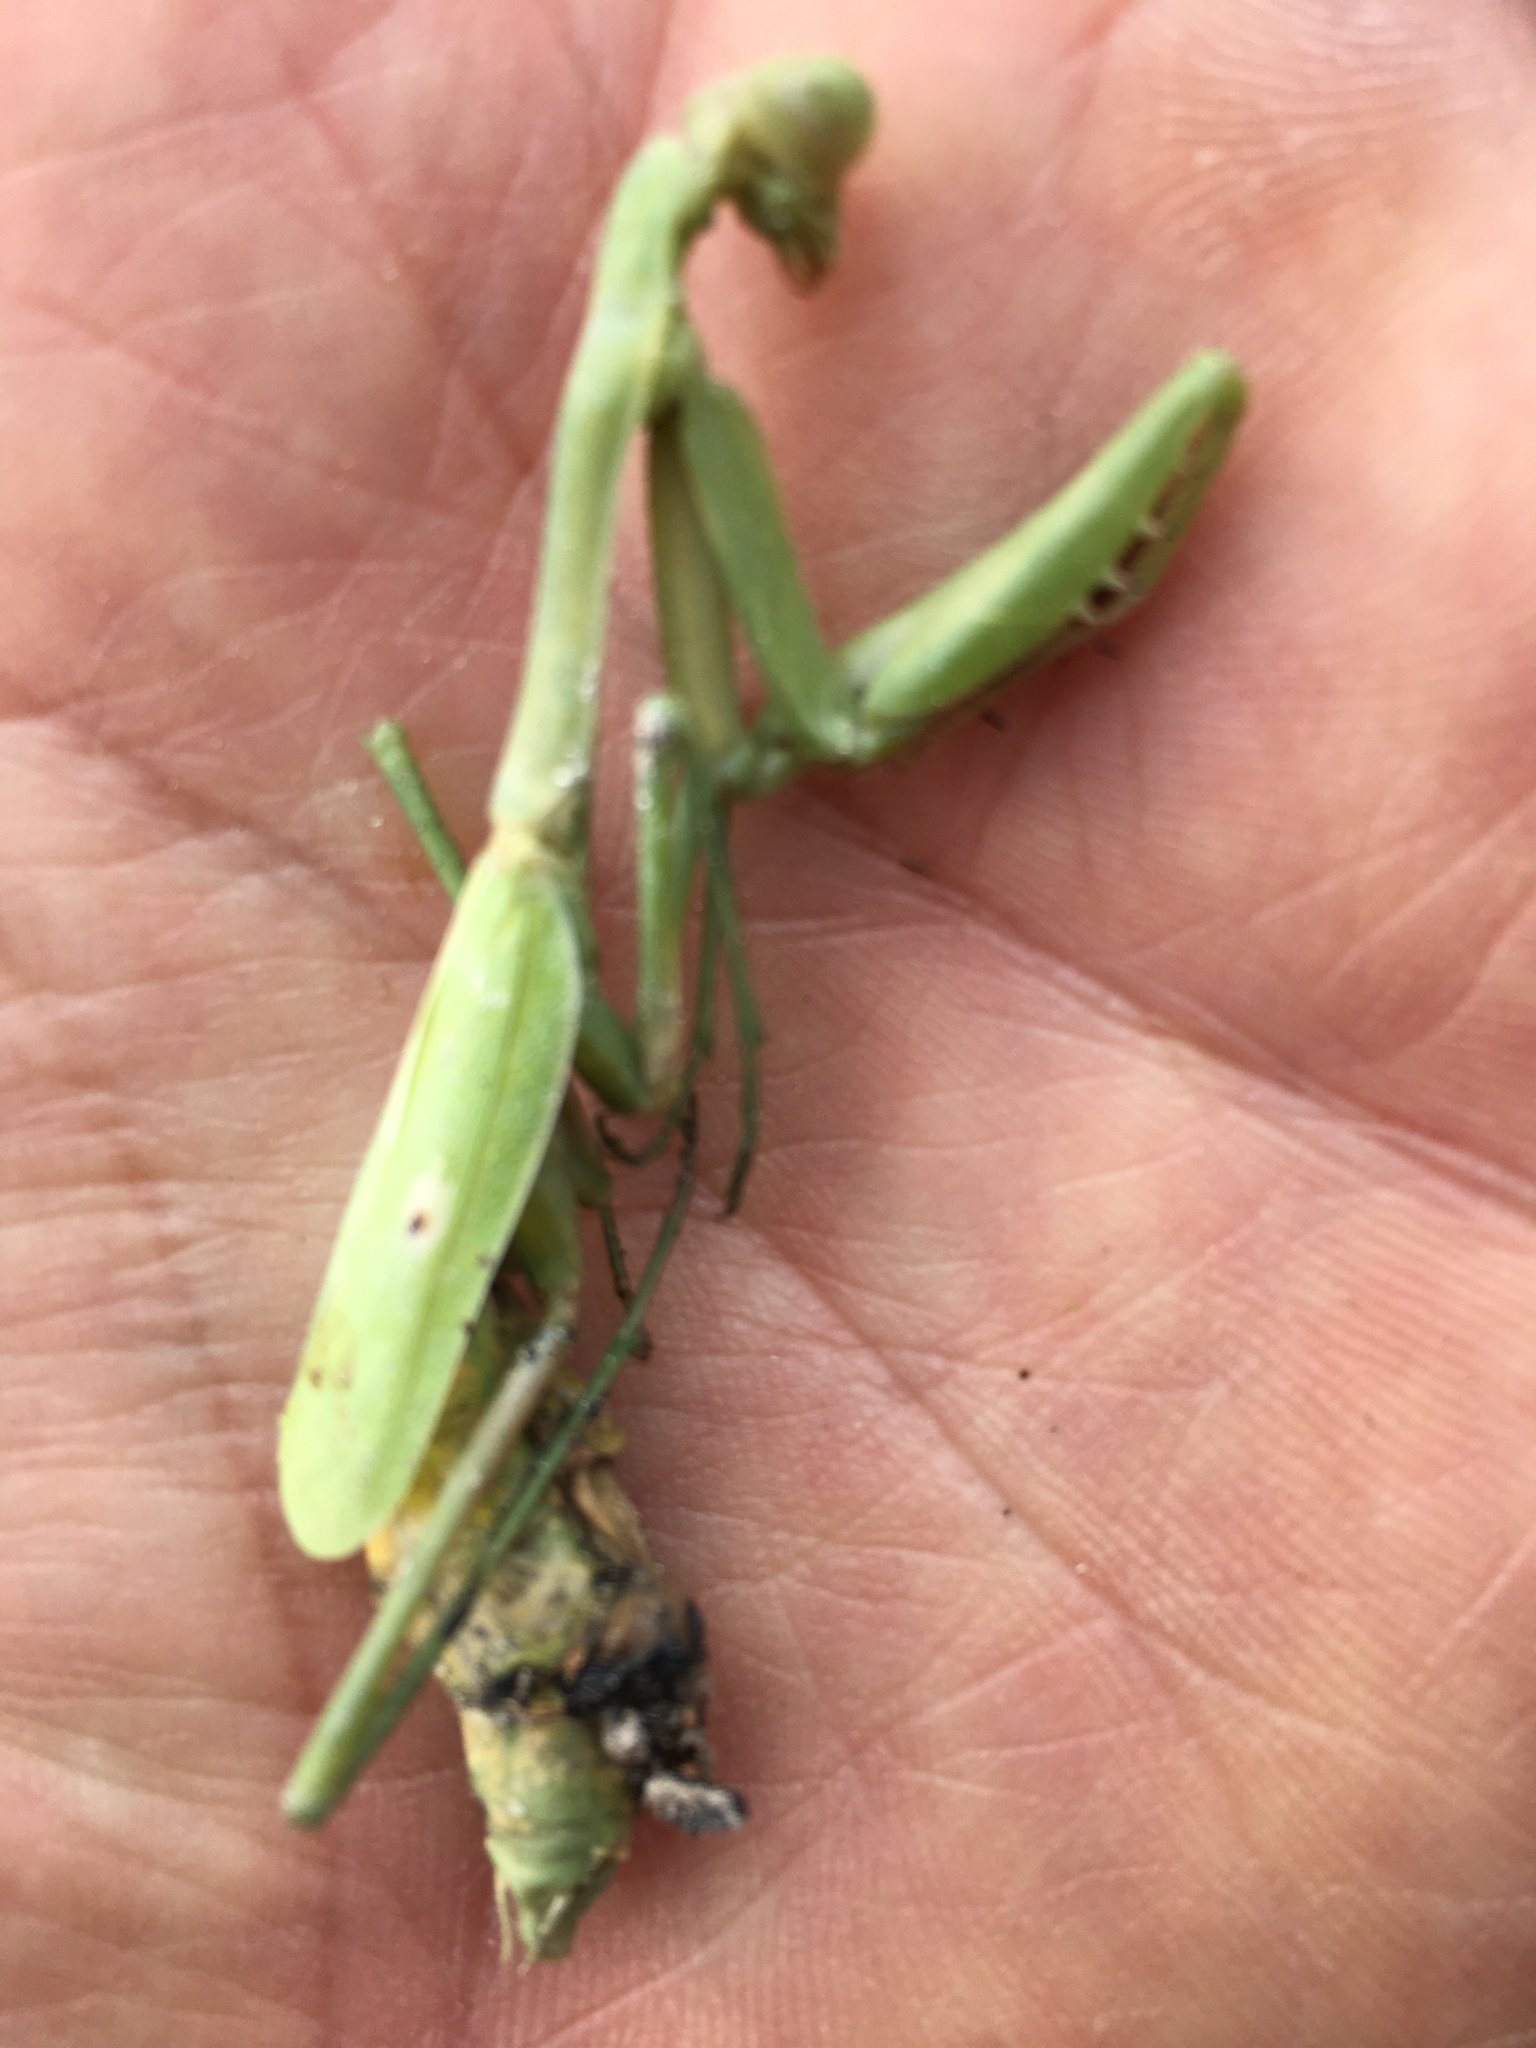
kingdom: Animalia
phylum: Arthropoda
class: Insecta
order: Mantodea
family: Mantidae
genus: Stagmomantis
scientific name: Stagmomantis carolina
